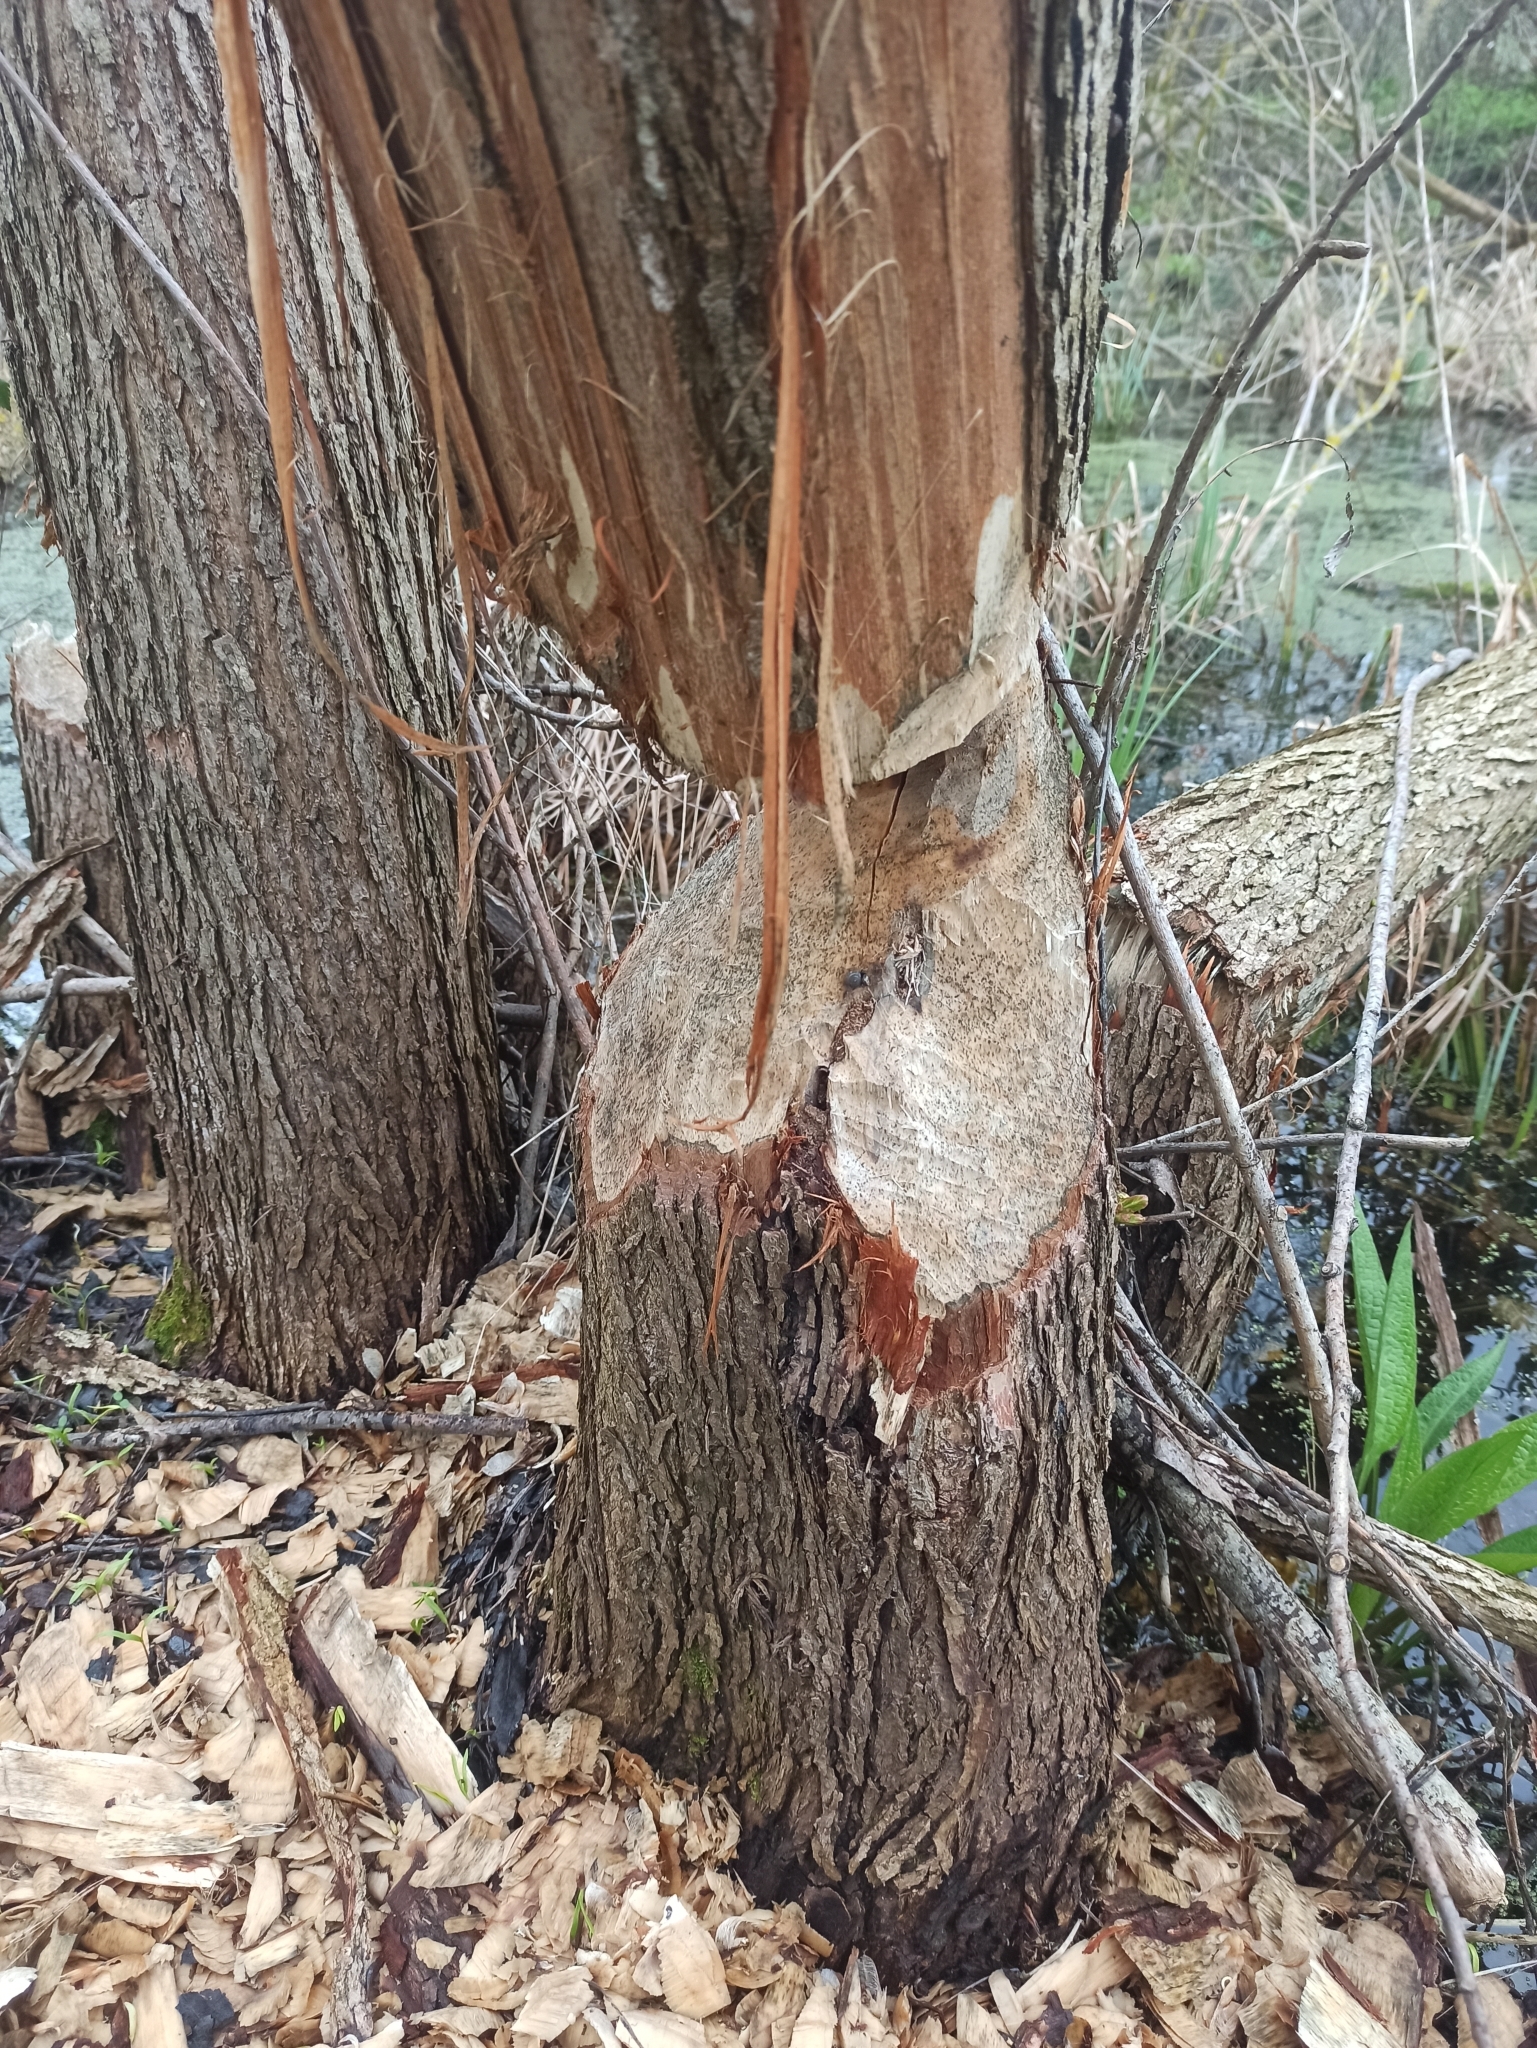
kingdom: Animalia
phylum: Chordata
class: Mammalia
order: Rodentia
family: Castoridae
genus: Castor
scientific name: Castor fiber
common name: Eurasian beaver
